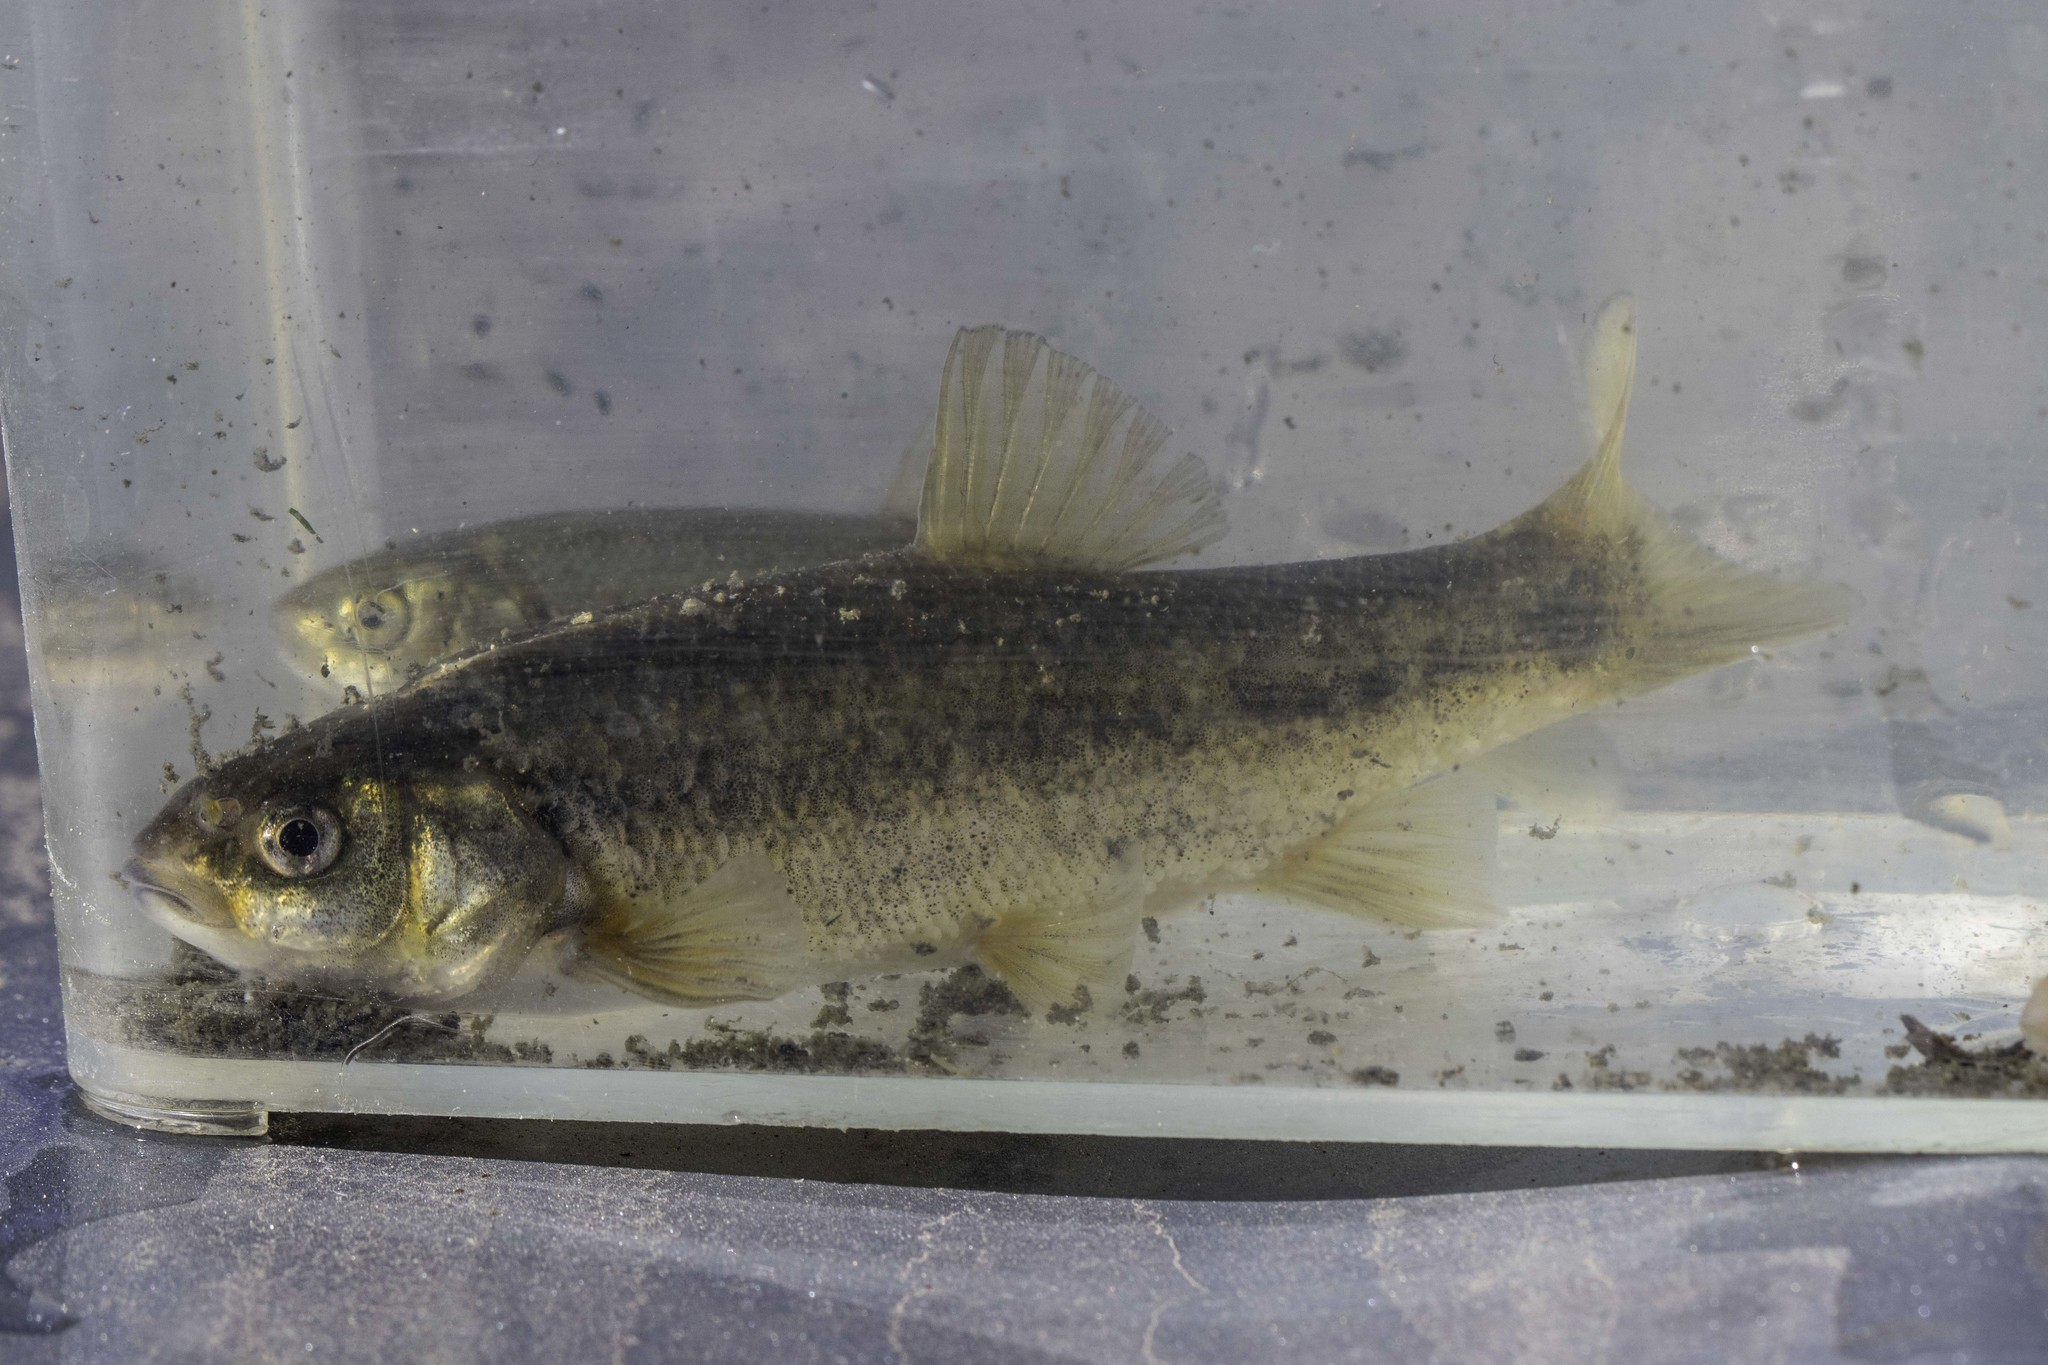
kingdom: Animalia
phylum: Chordata
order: Cypriniformes
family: Cyprinidae
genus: Gila
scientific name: Gila orcuttii
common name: Arroyo chub
